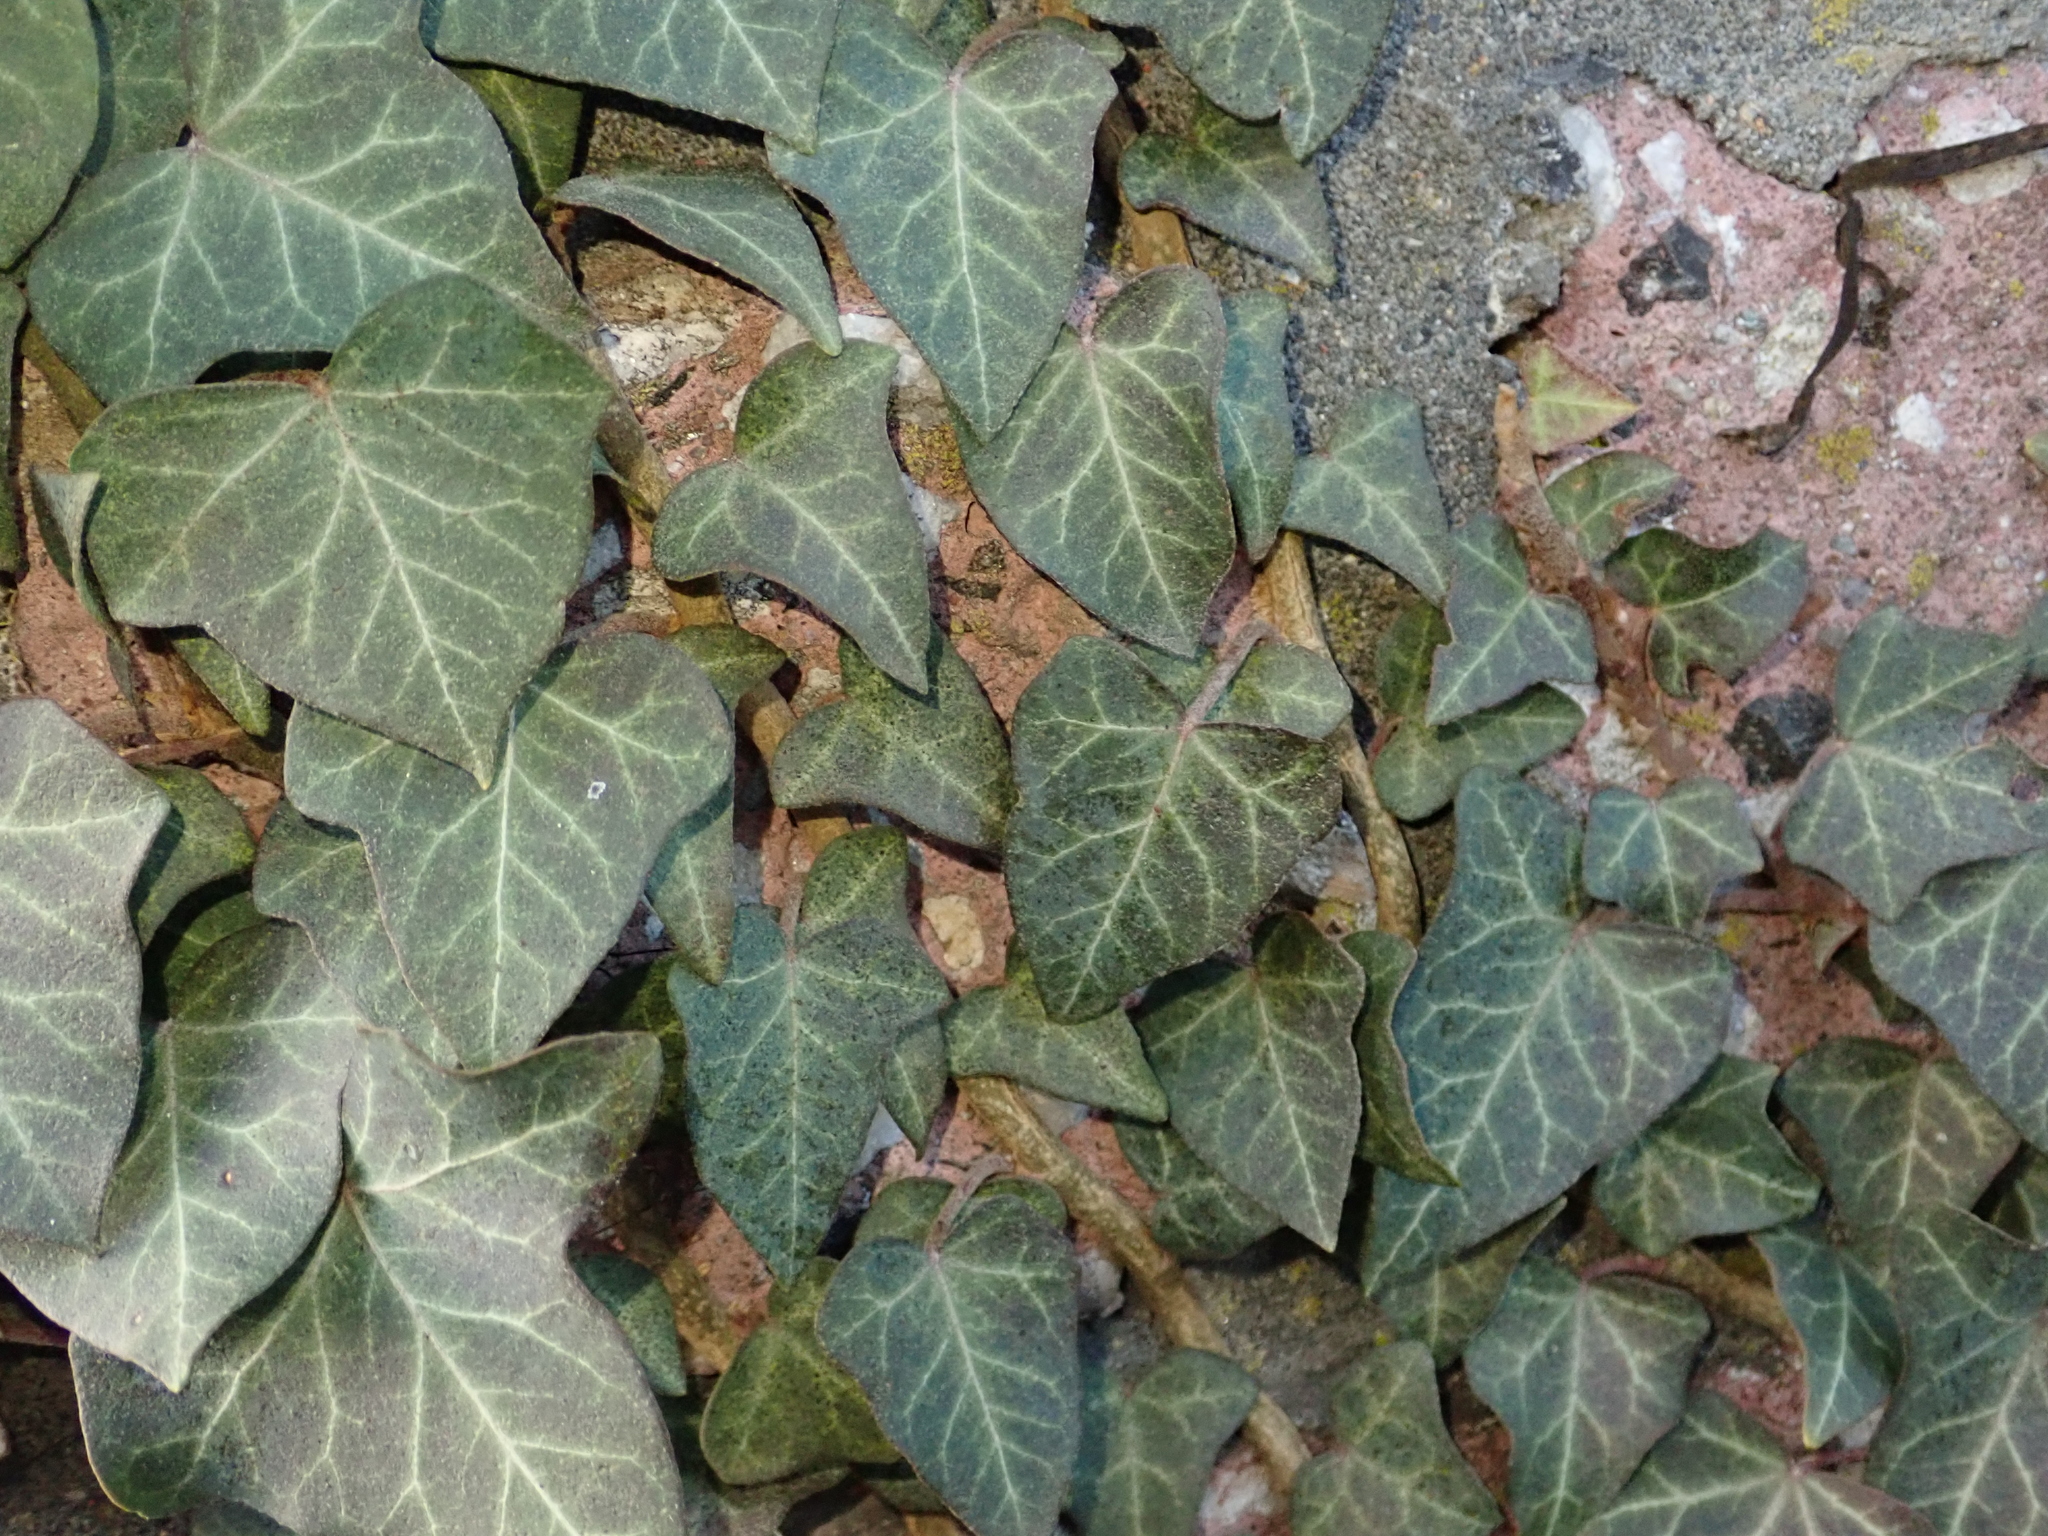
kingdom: Plantae
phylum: Tracheophyta
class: Magnoliopsida
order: Apiales
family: Araliaceae
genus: Hedera
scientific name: Hedera helix
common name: Ivy
